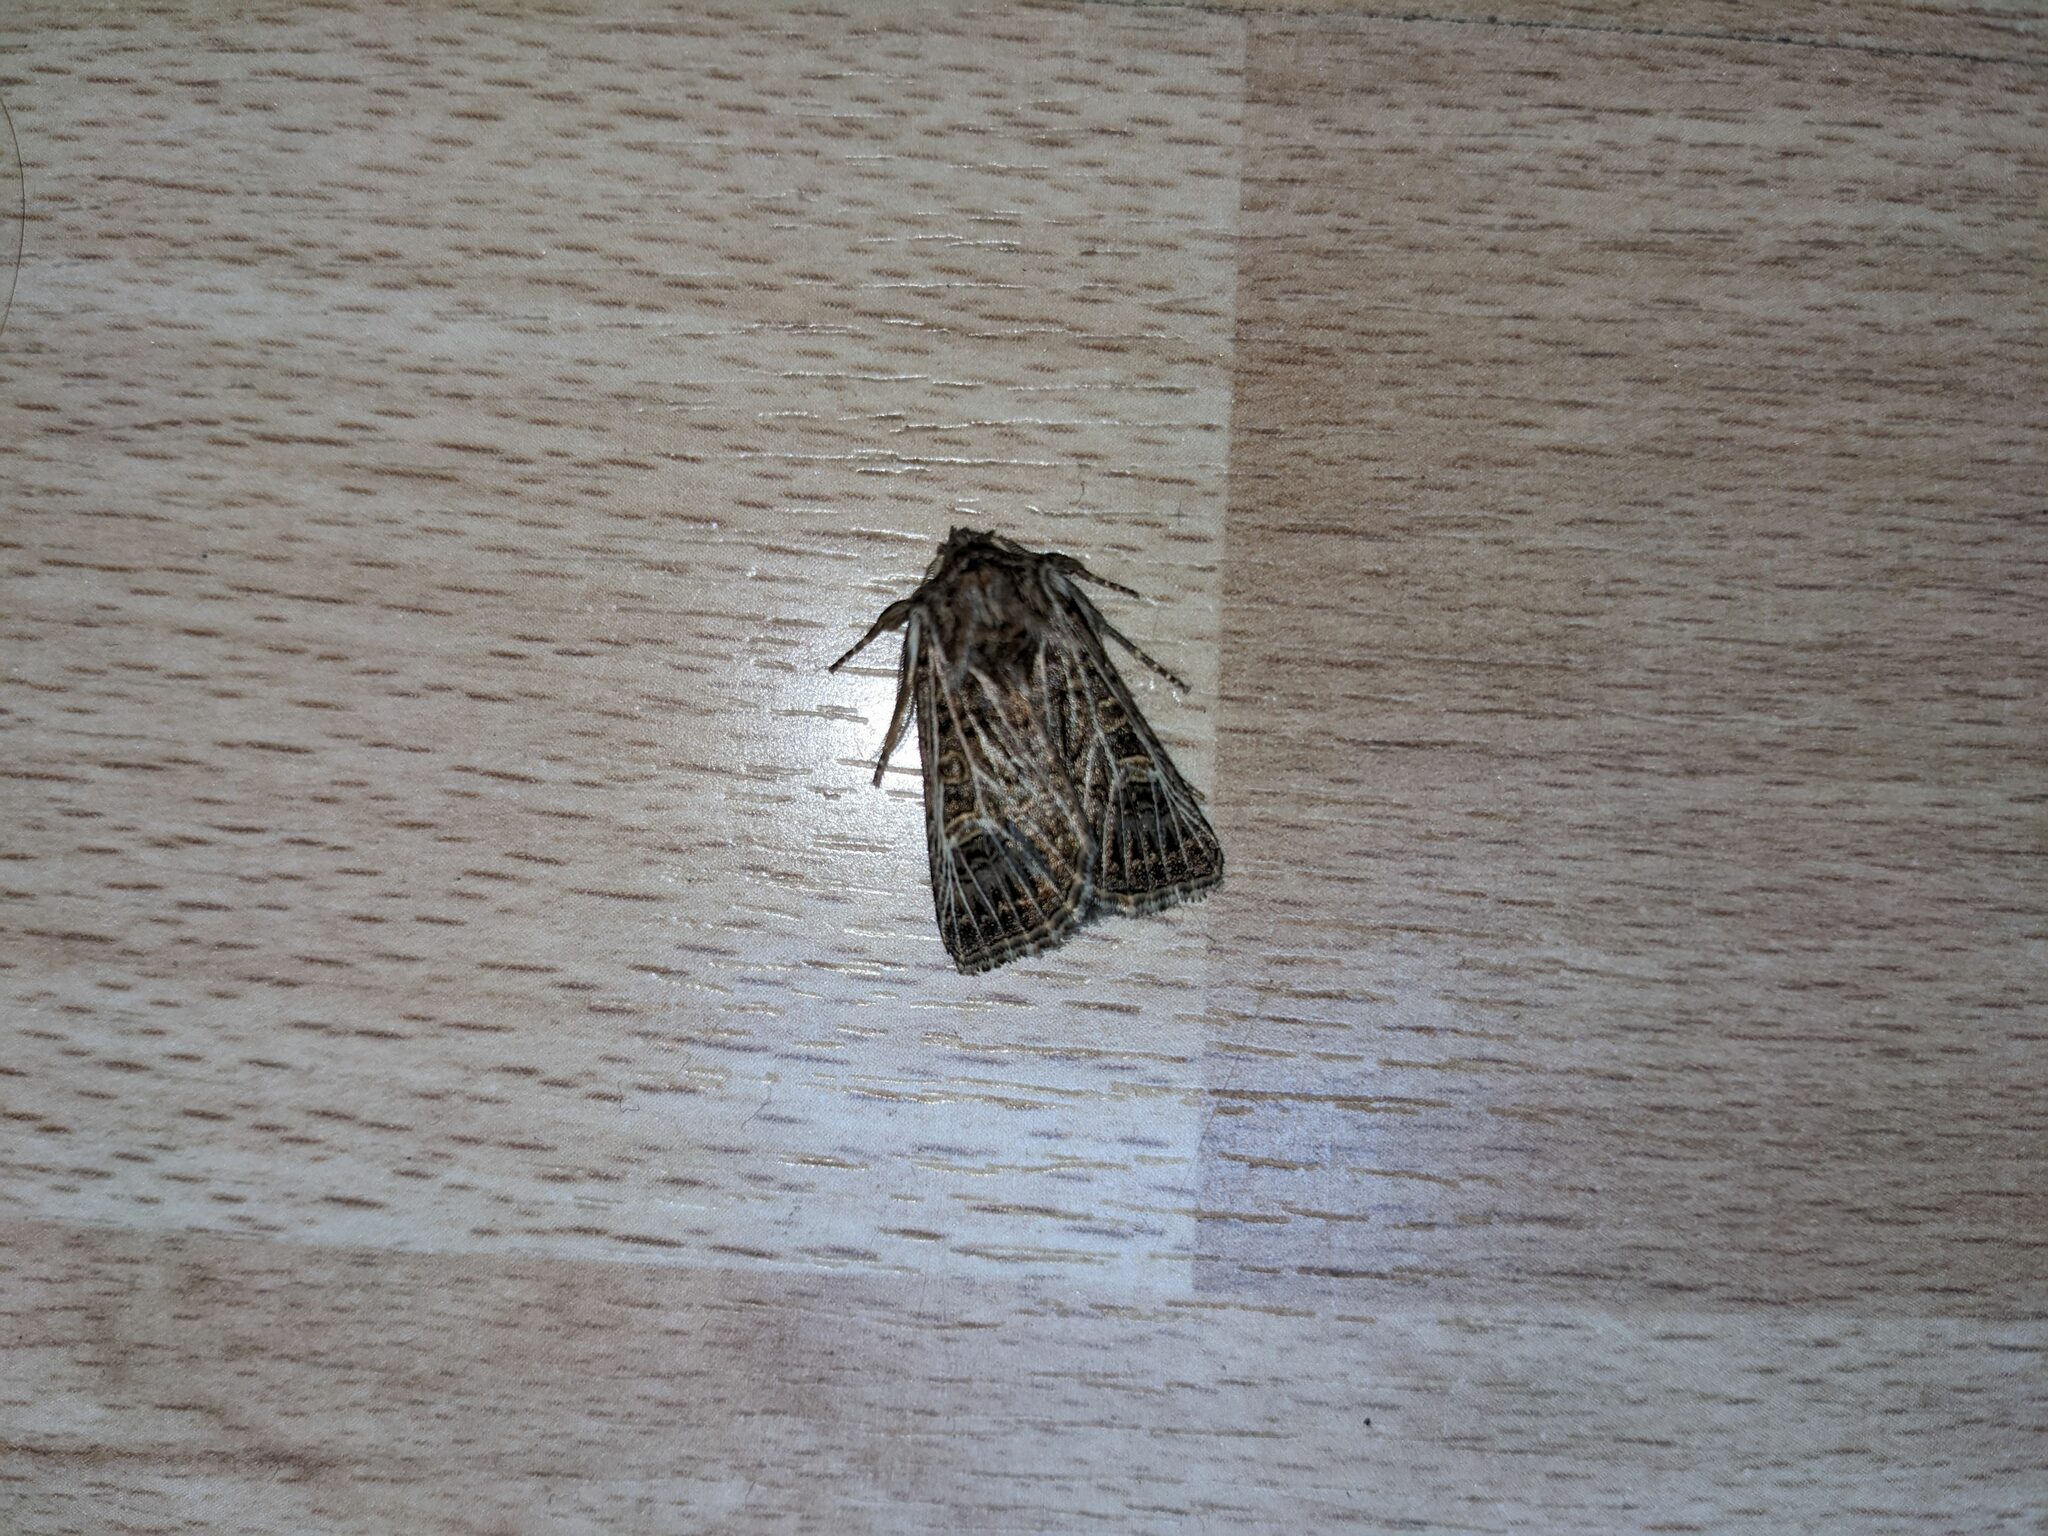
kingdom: Animalia
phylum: Arthropoda
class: Insecta
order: Lepidoptera
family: Noctuidae
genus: Tholera
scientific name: Tholera decimalis
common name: Feathered gothic
